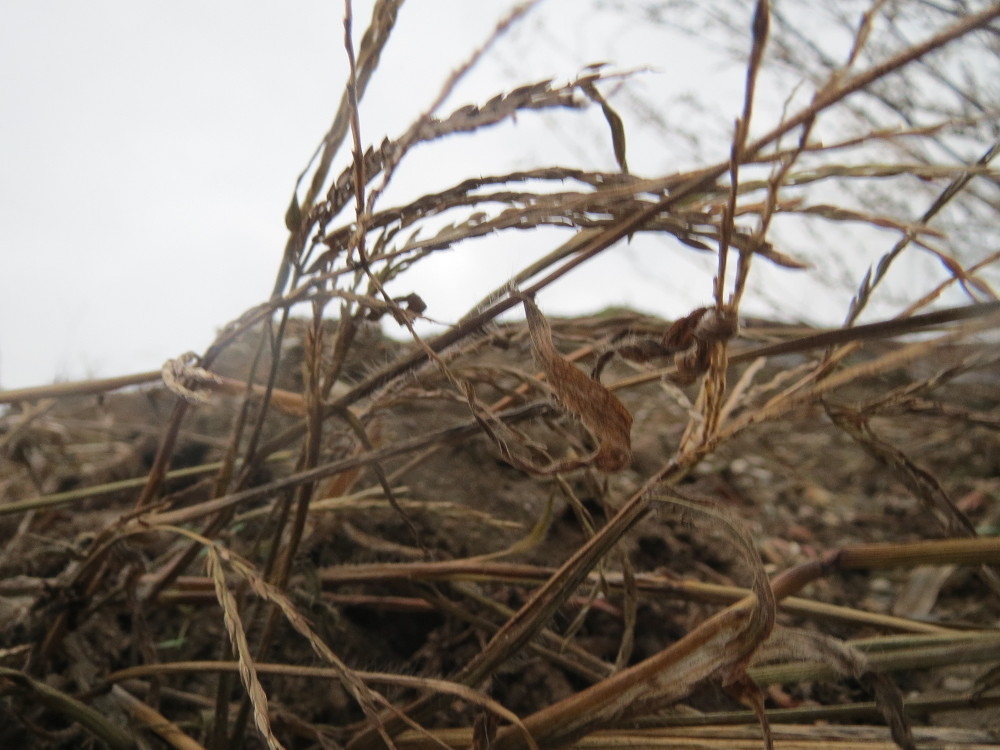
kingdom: Plantae
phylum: Tracheophyta
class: Liliopsida
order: Poales
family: Poaceae
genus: Digitaria
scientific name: Digitaria sanguinalis
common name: Hairy crabgrass
